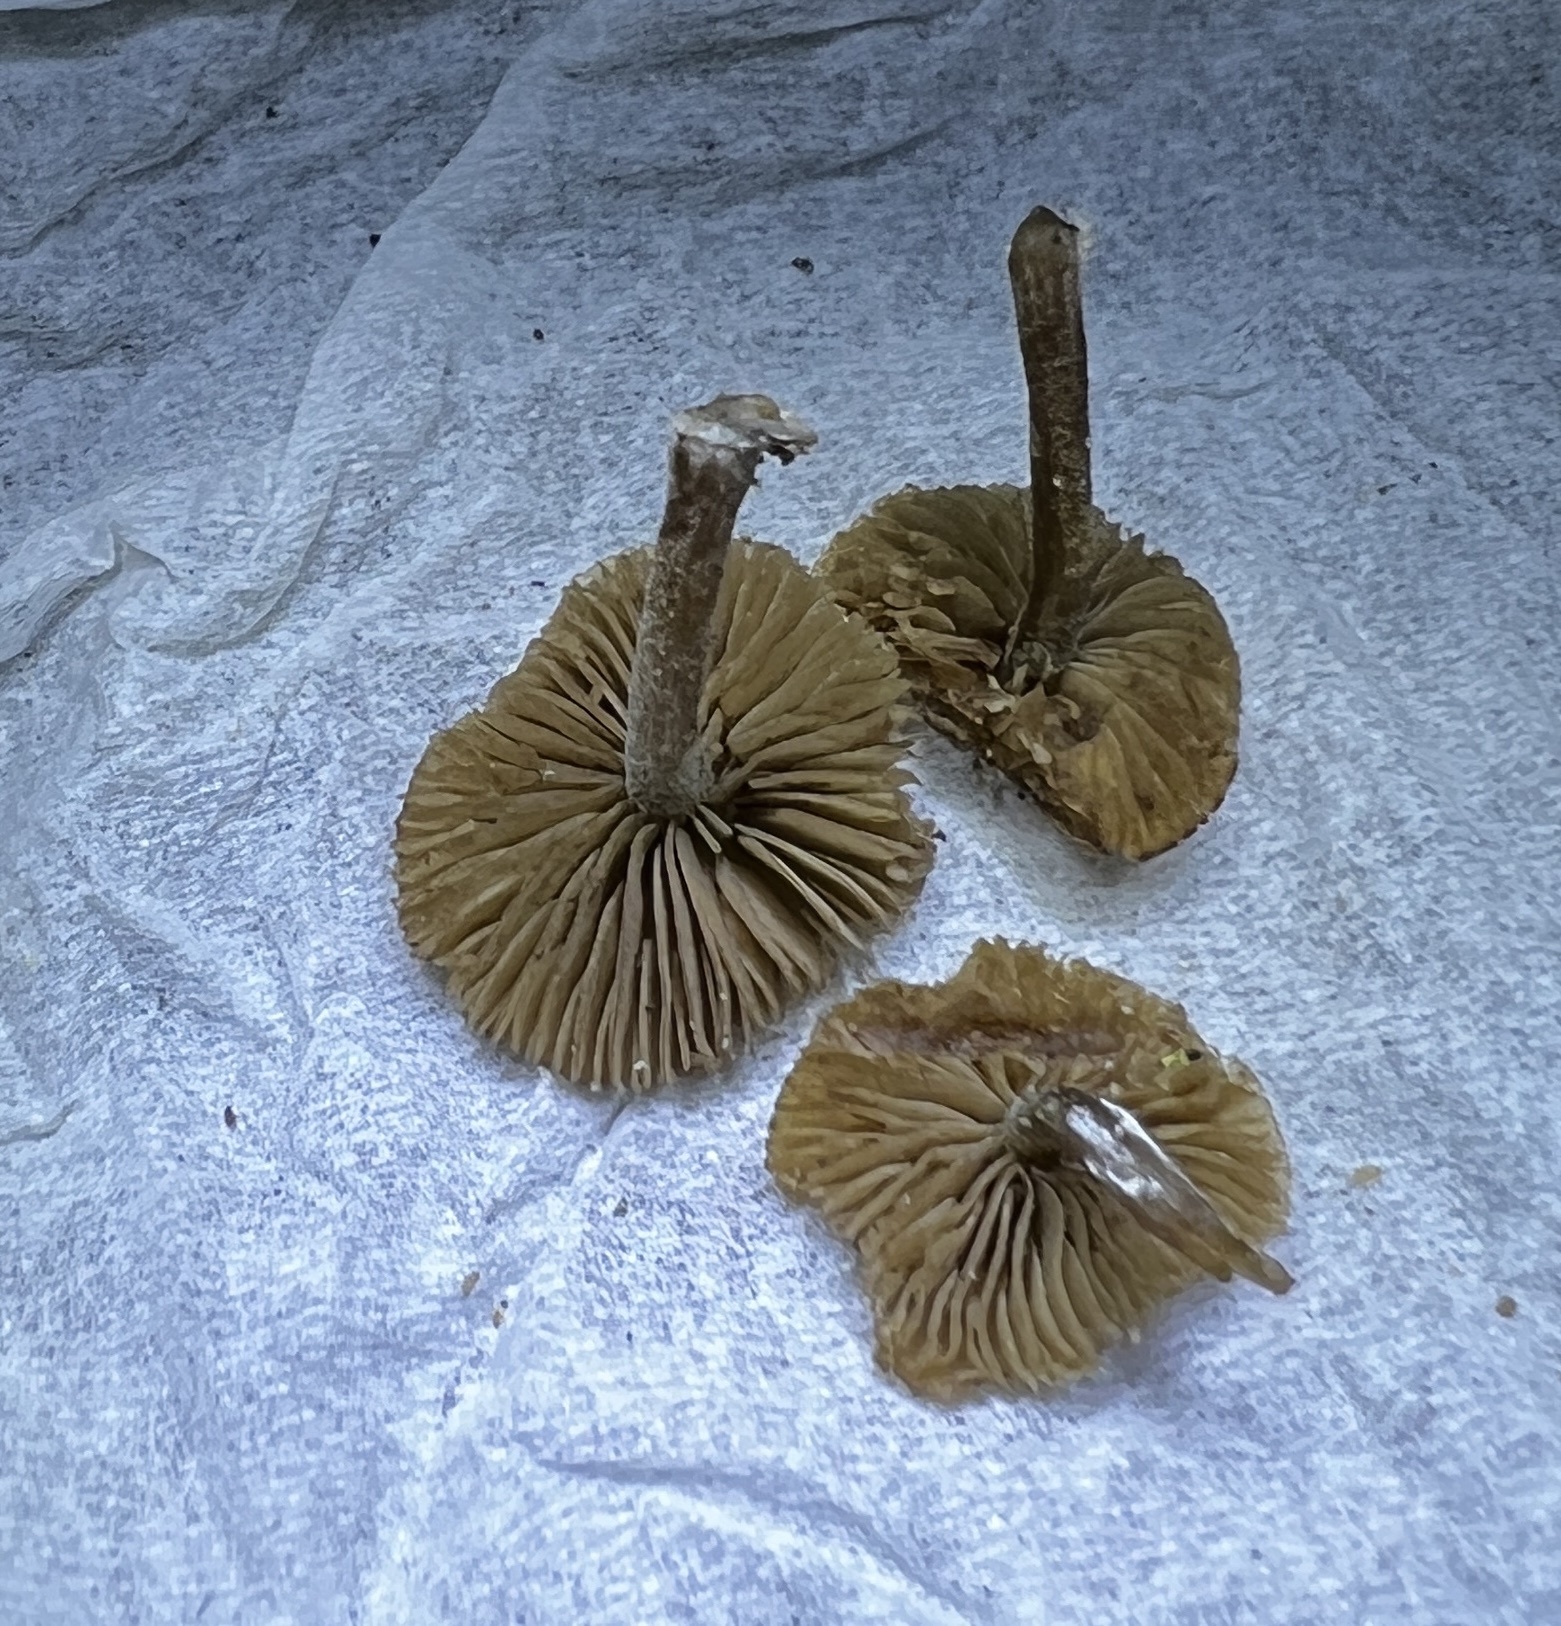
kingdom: Fungi
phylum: Basidiomycota
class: Agaricomycetes
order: Agaricales
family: Crepidotaceae
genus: Simocybe
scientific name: Simocybe centunculus
